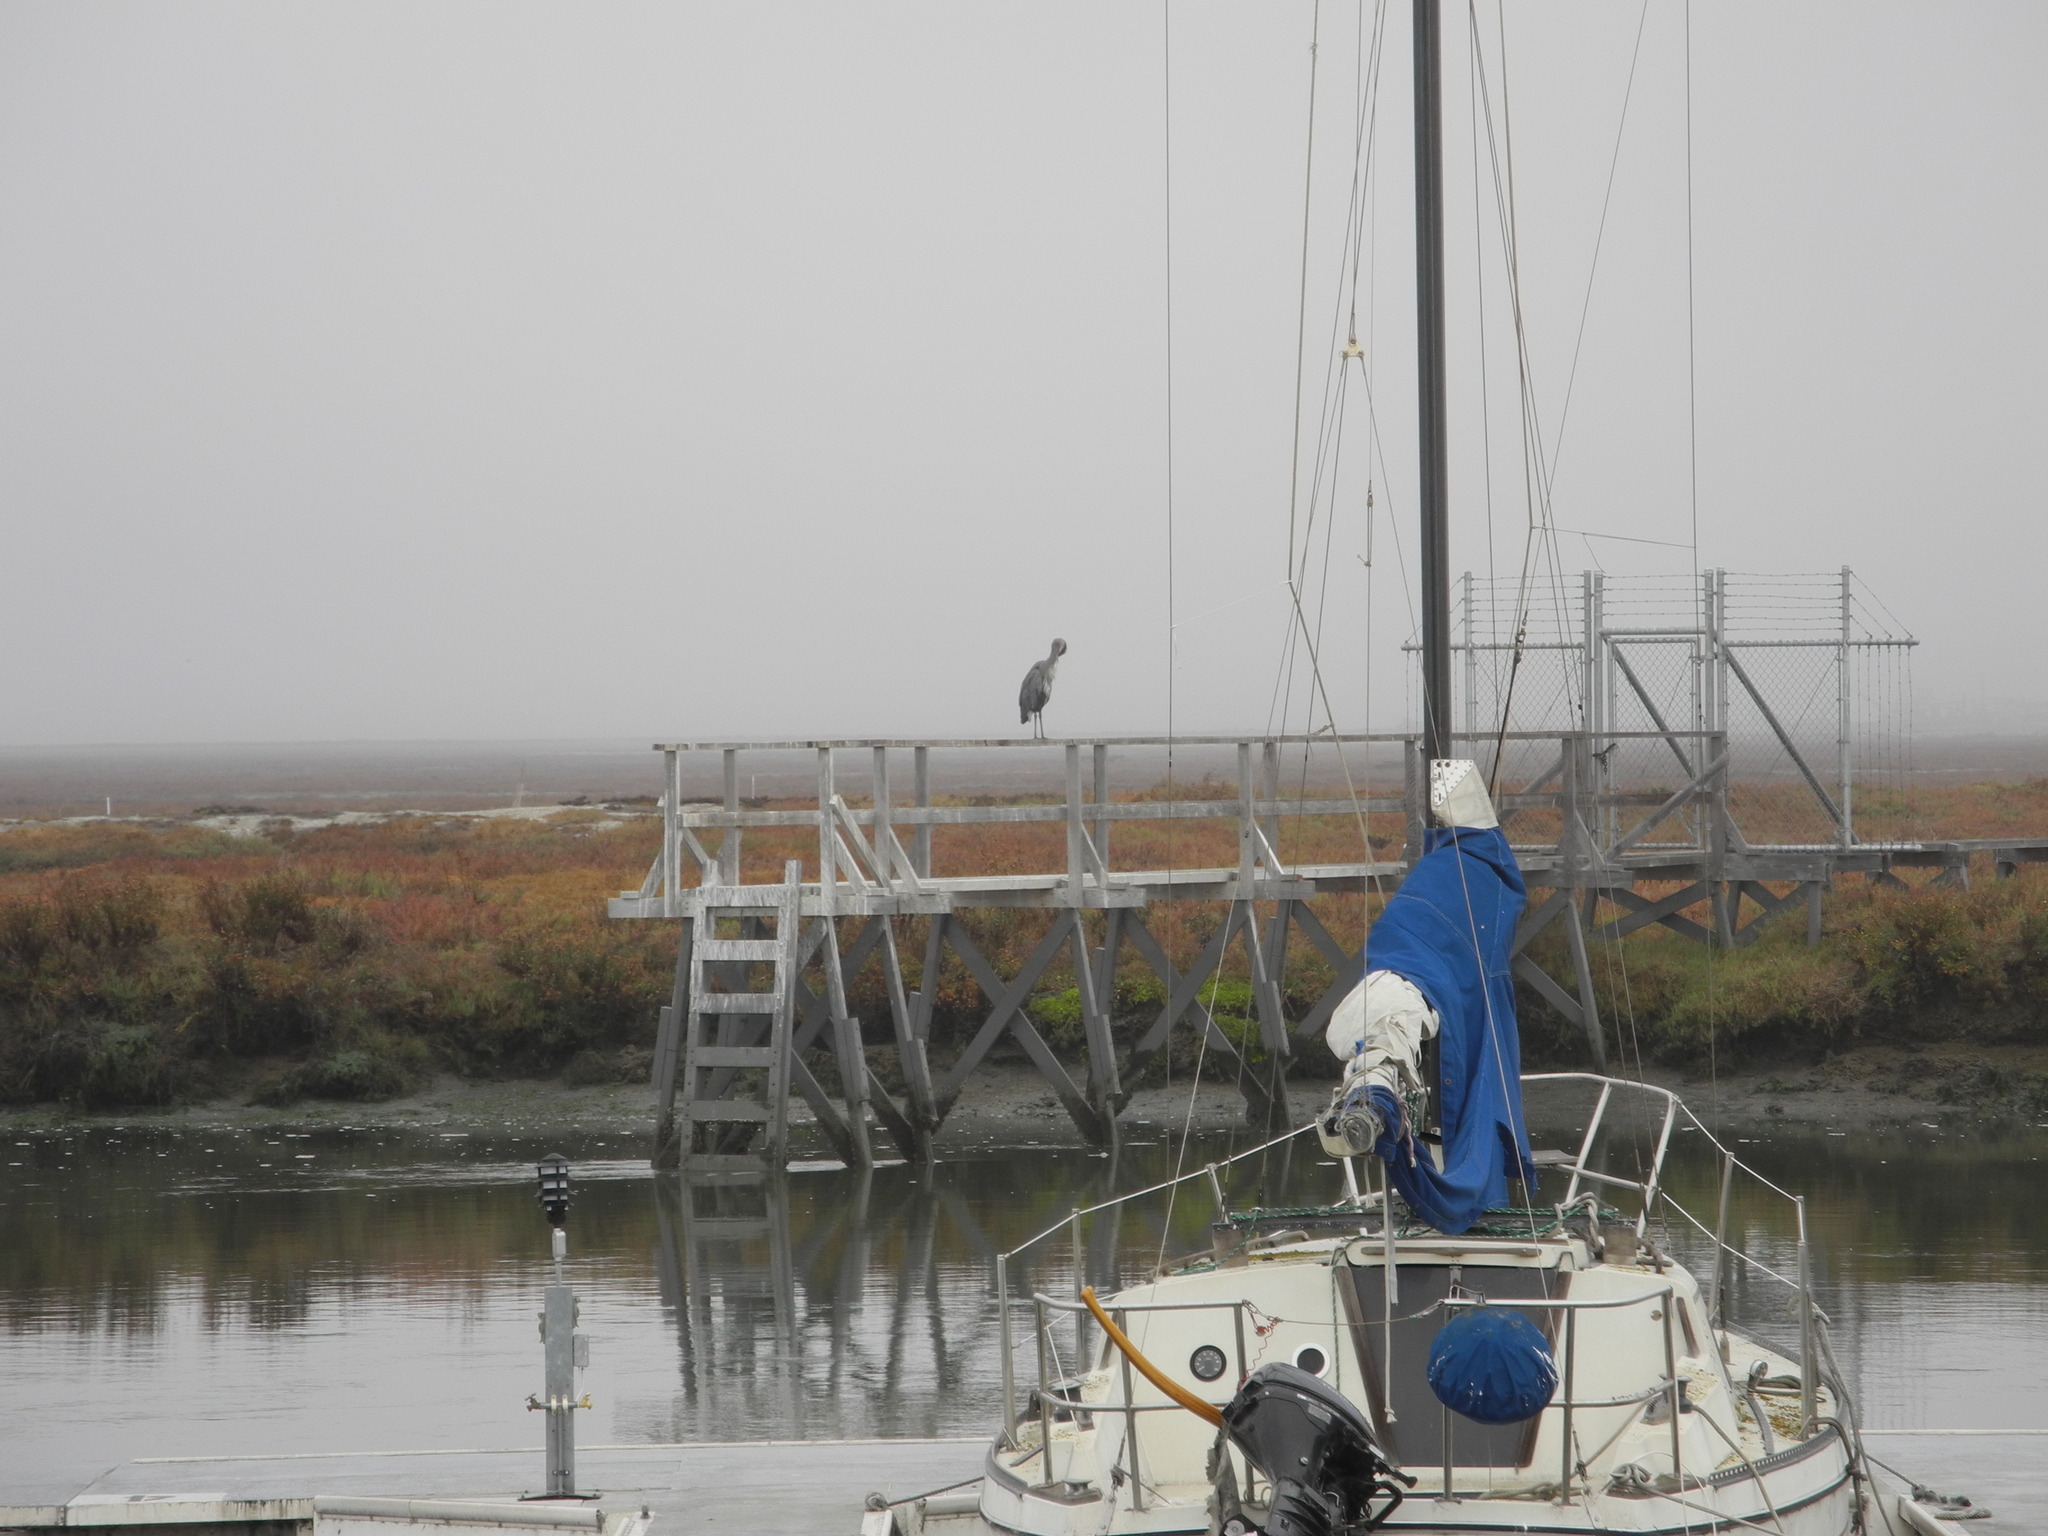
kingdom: Animalia
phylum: Chordata
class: Aves
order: Pelecaniformes
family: Ardeidae
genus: Ardea
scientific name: Ardea herodias
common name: Great blue heron
